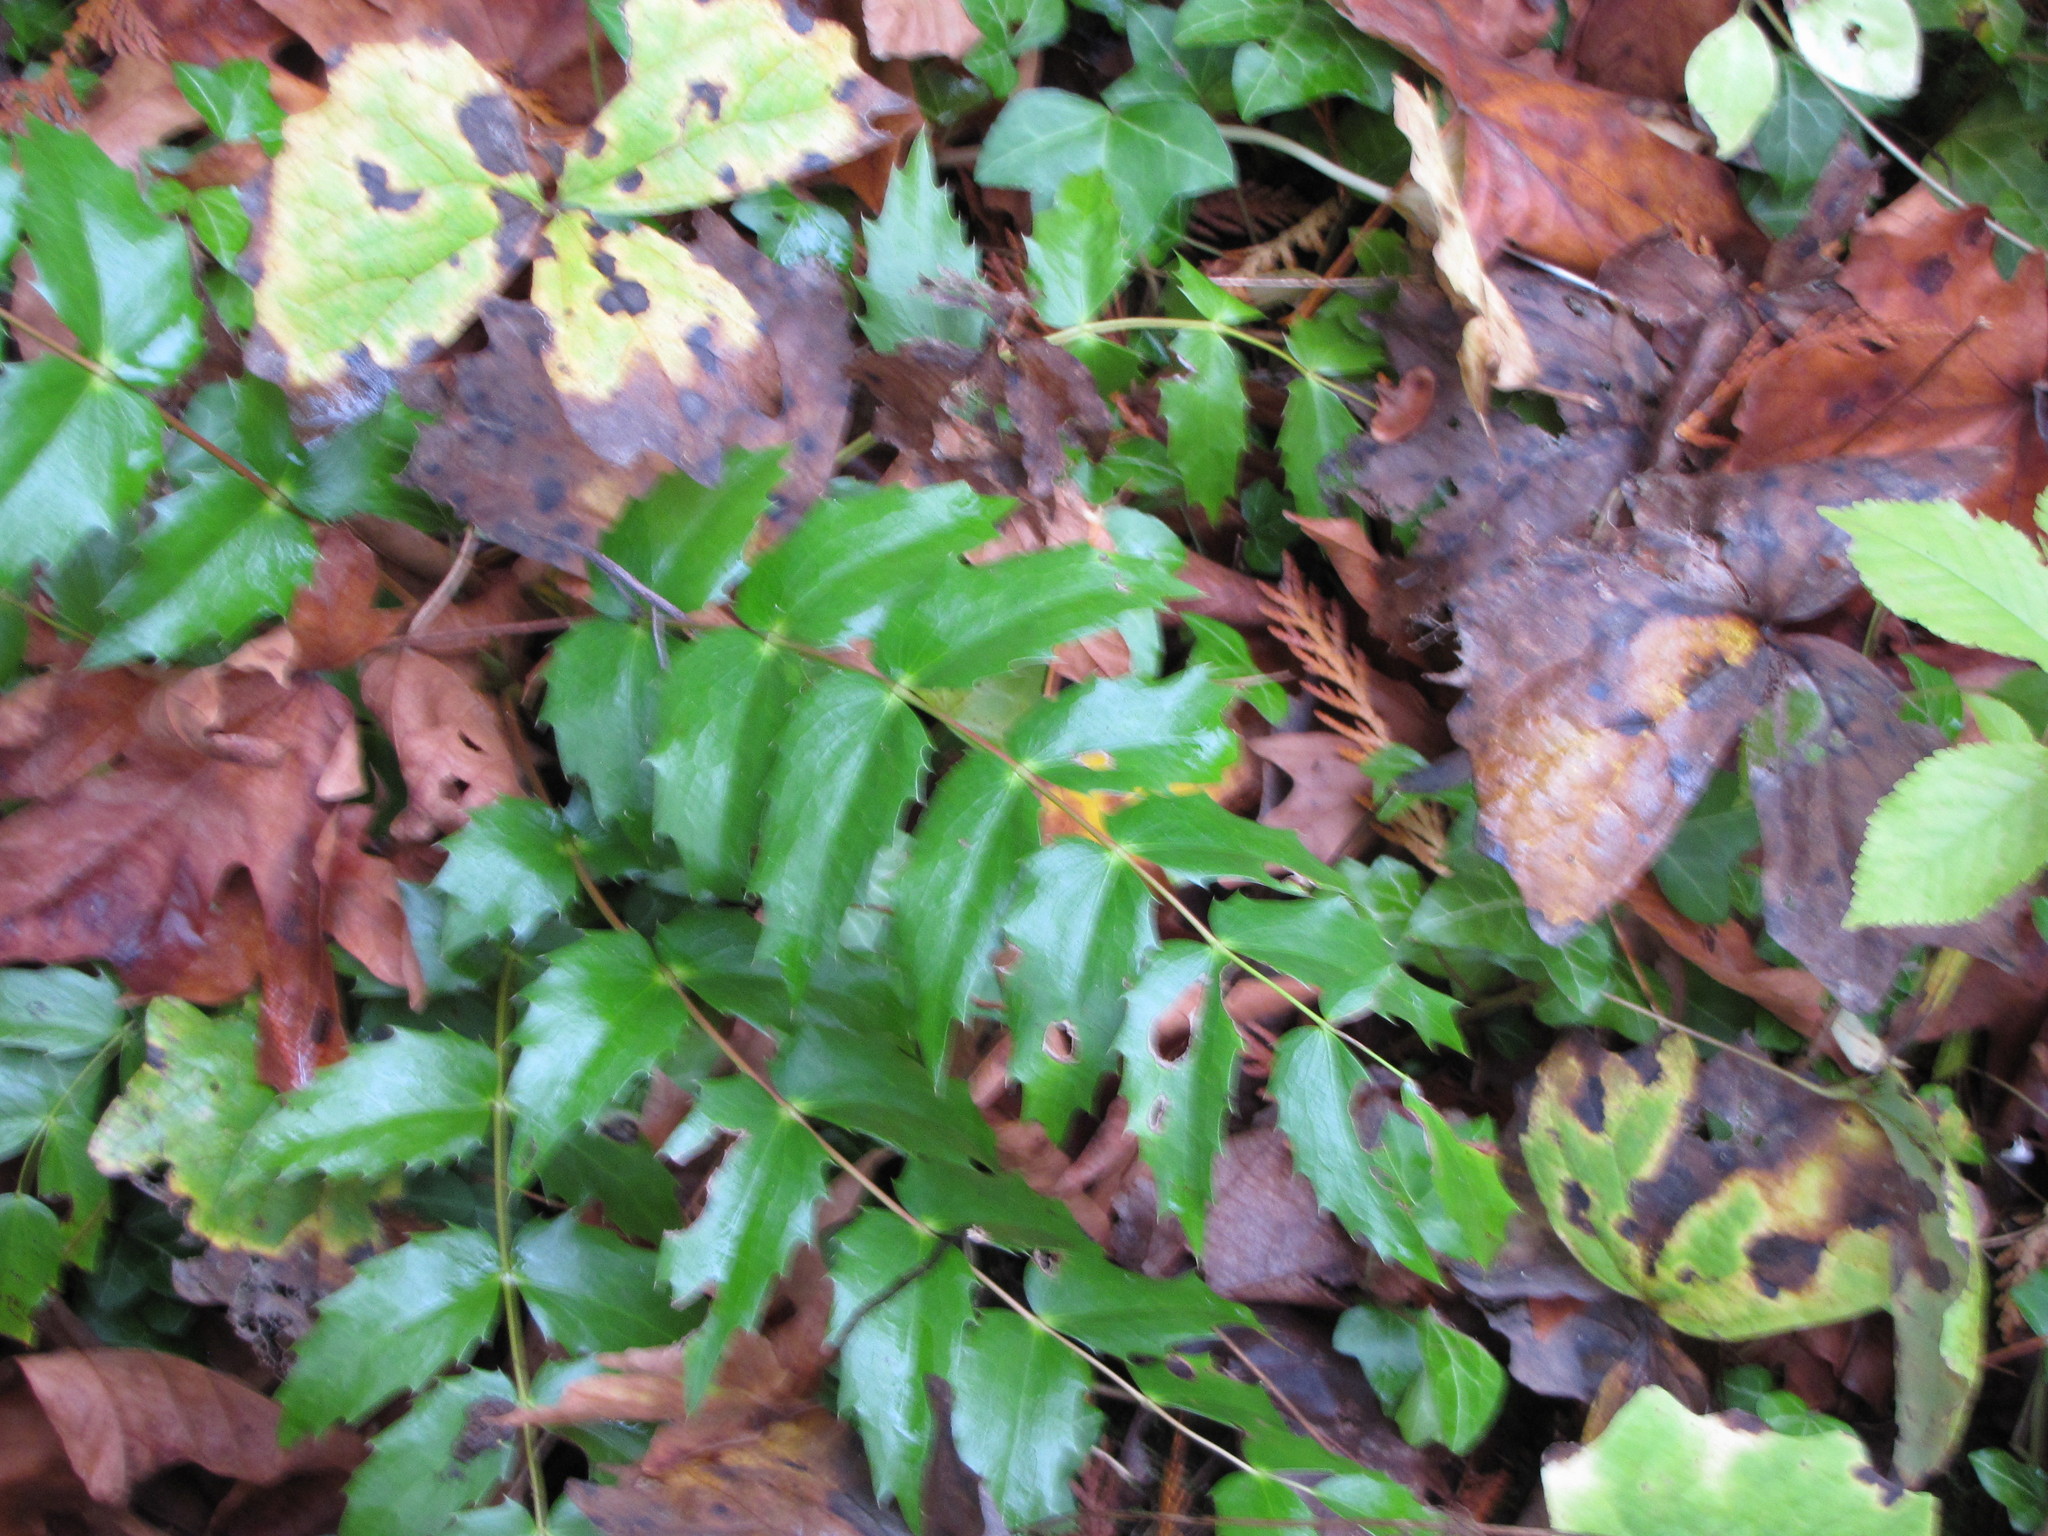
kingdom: Plantae
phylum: Tracheophyta
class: Magnoliopsida
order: Ranunculales
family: Berberidaceae
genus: Mahonia
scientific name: Mahonia nervosa
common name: Cascade oregon-grape
